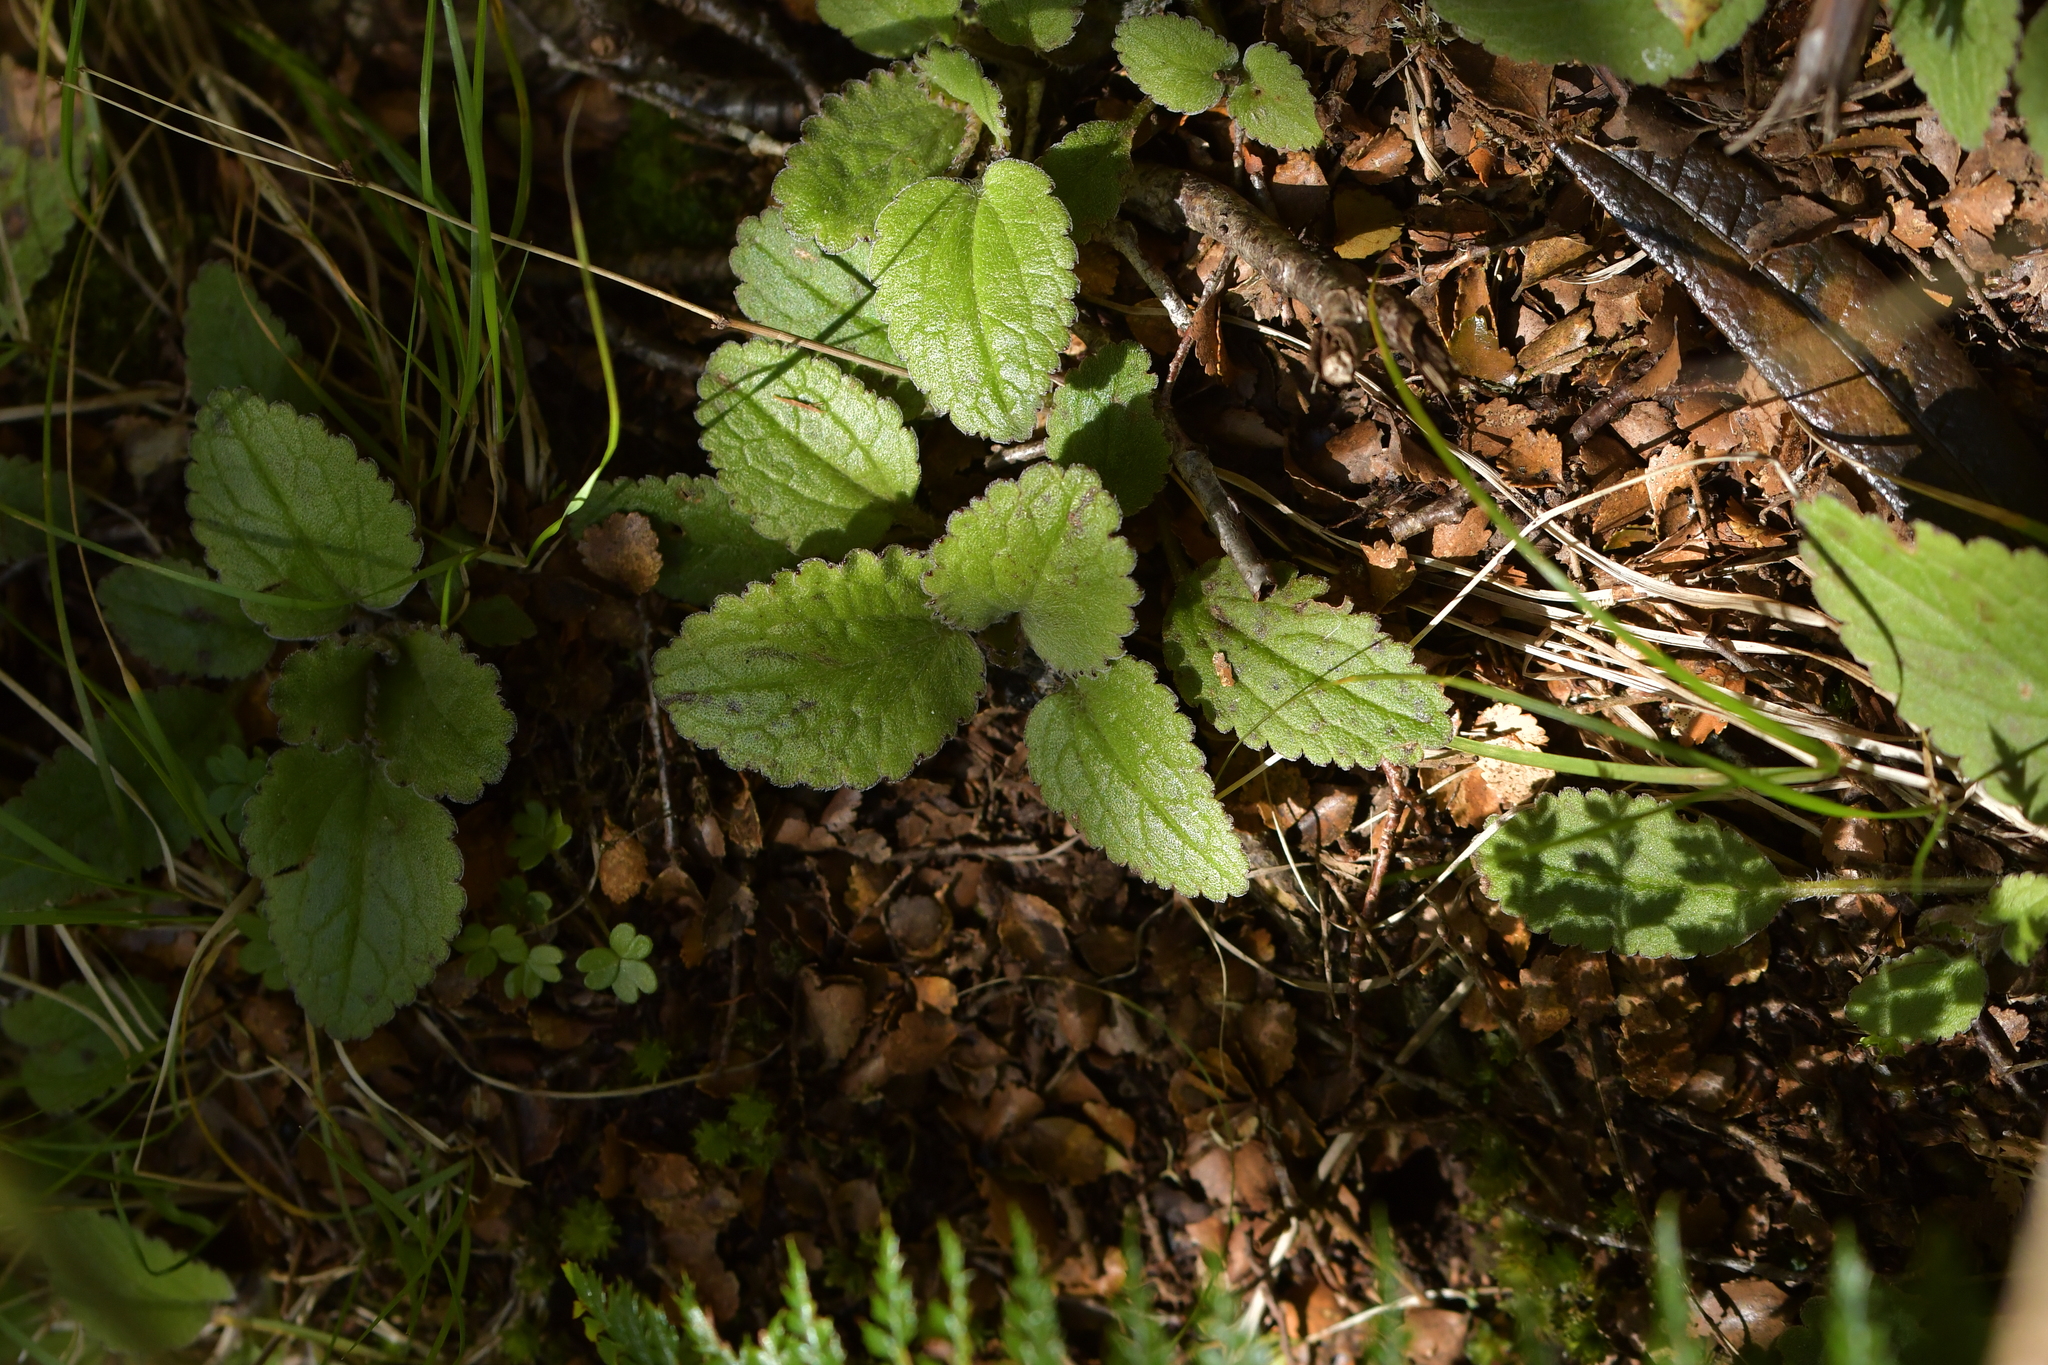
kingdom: Plantae
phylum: Tracheophyta
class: Magnoliopsida
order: Lamiales
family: Plantaginaceae
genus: Ourisia
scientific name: Ourisia macrophylla
